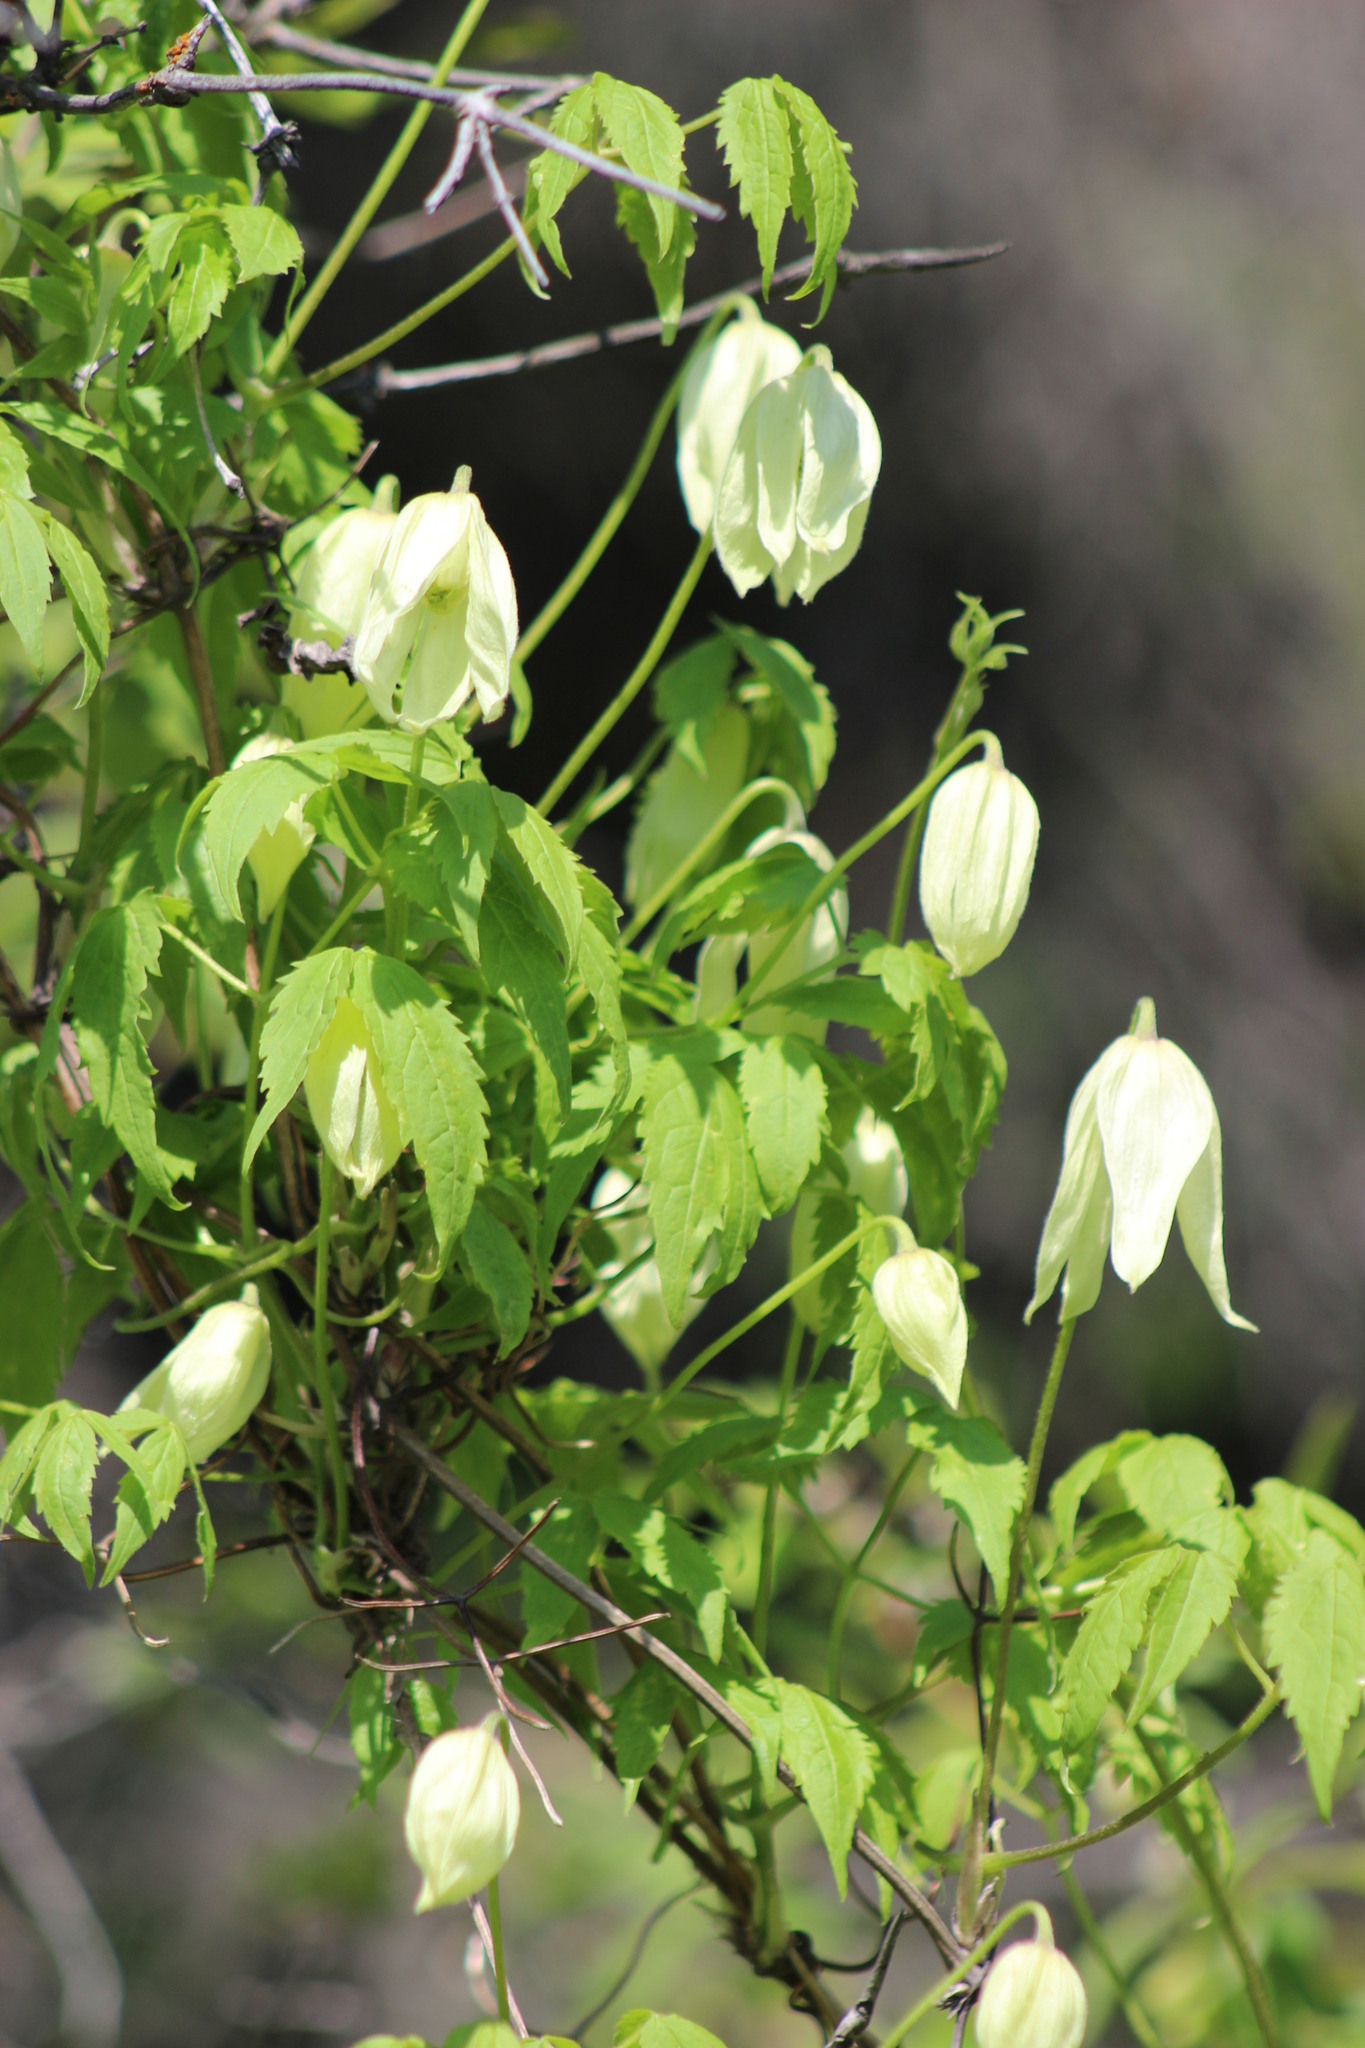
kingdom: Plantae
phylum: Tracheophyta
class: Magnoliopsida
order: Ranunculales
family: Ranunculaceae
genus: Clematis
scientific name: Clematis sibirica
